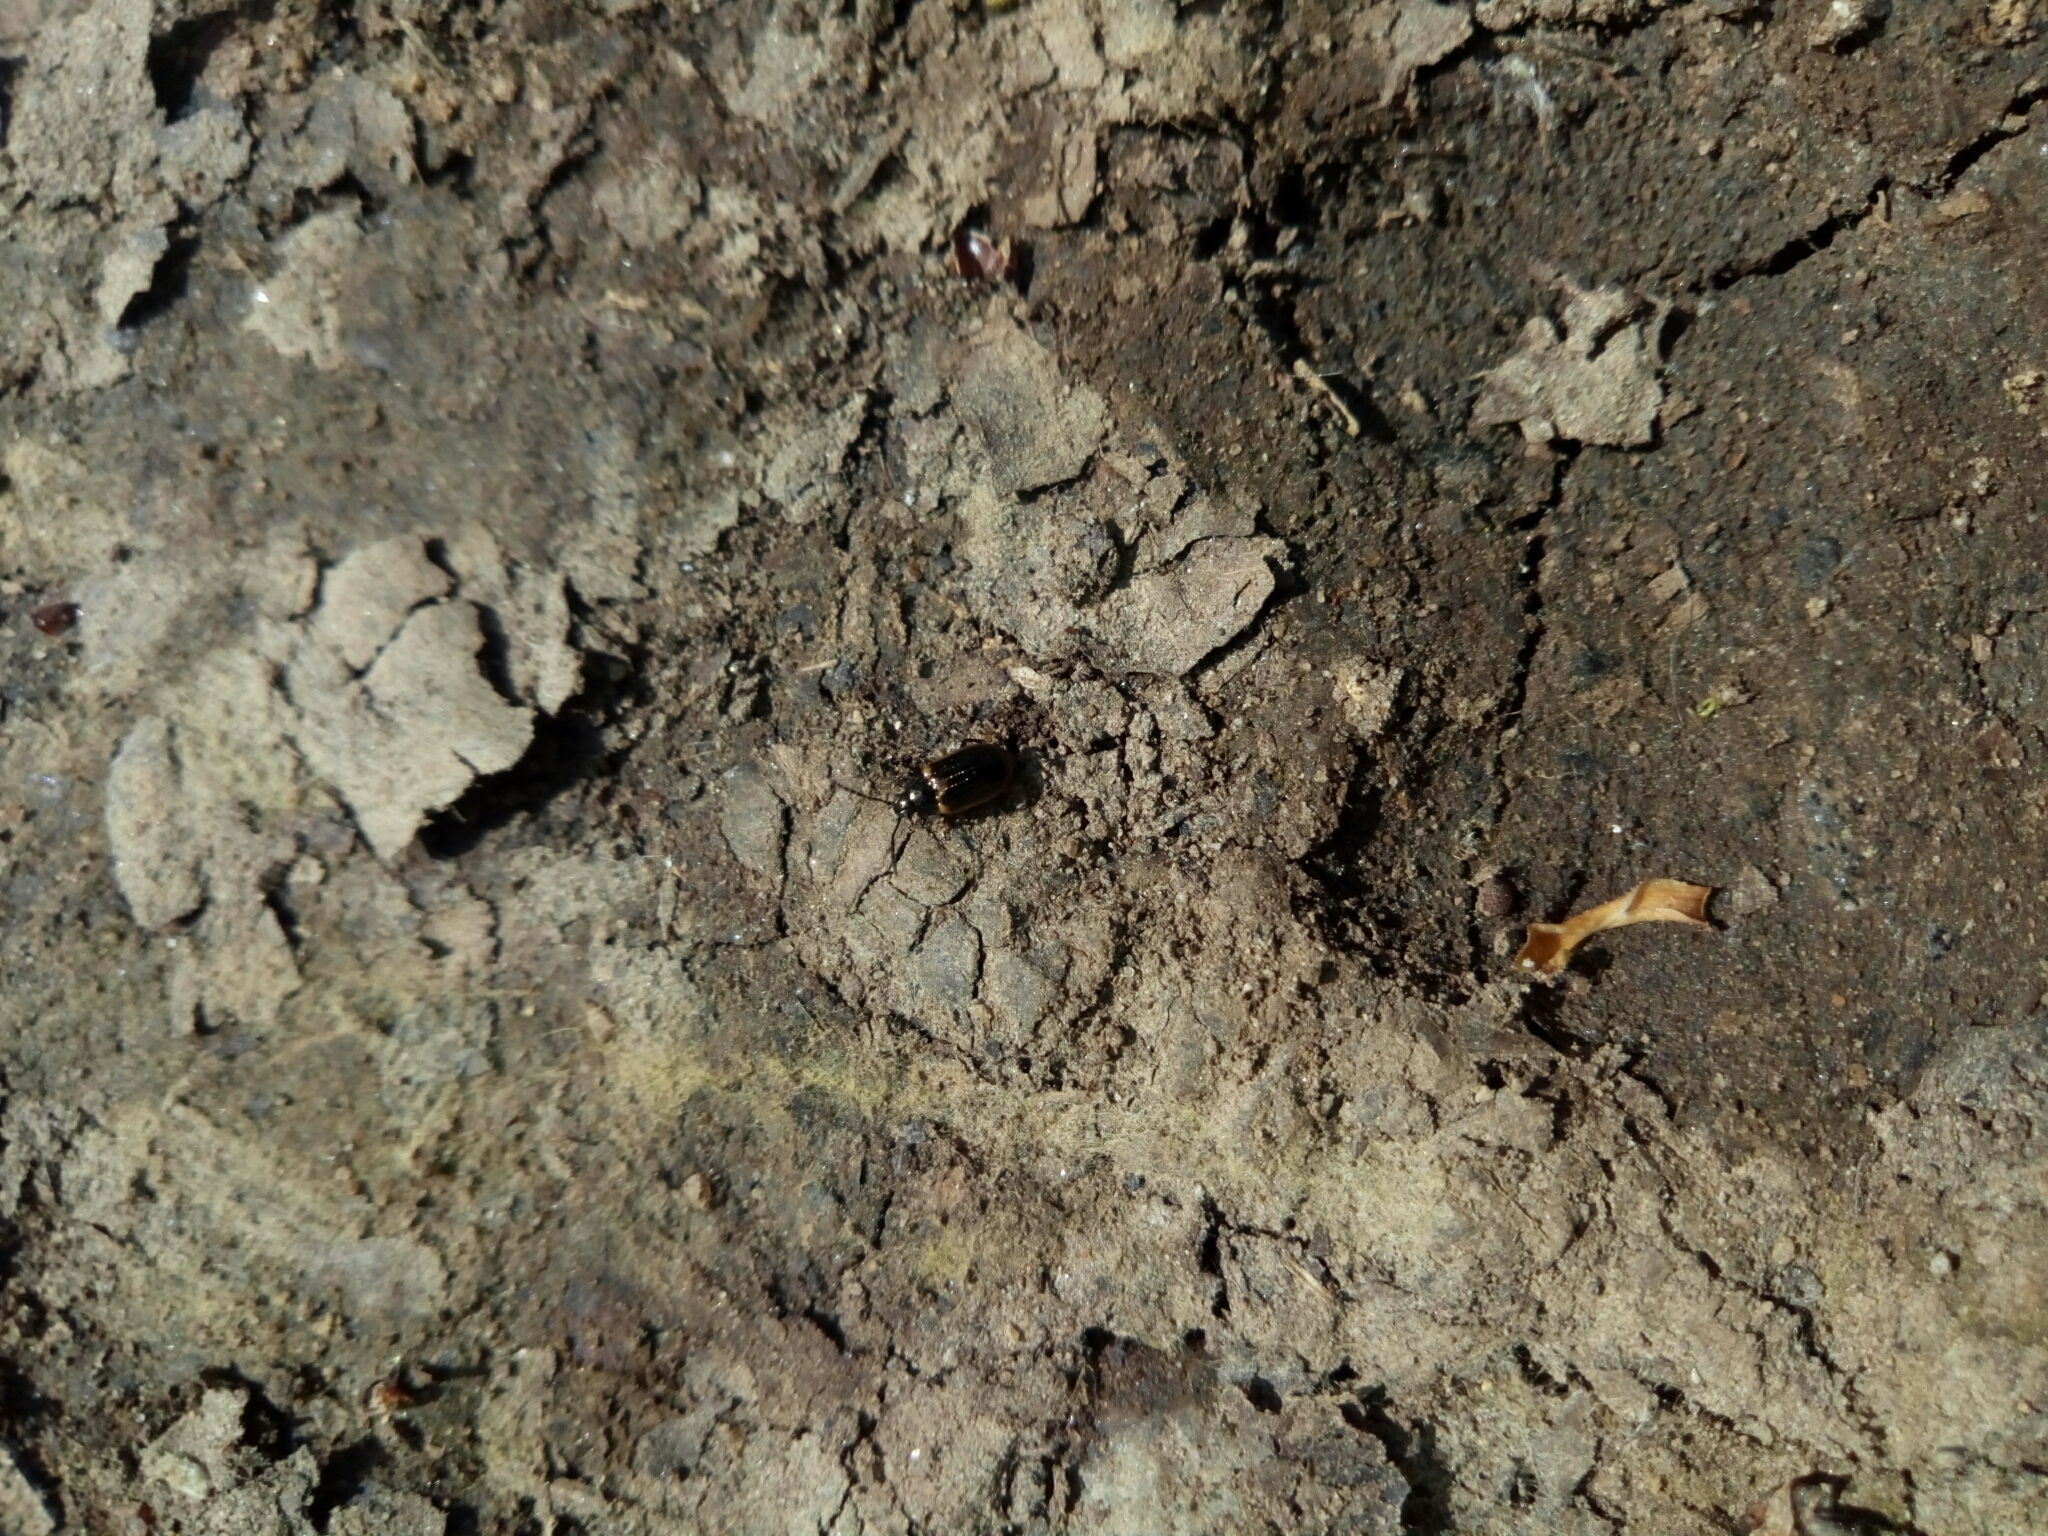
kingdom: Animalia
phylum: Arthropoda
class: Insecta
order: Coleoptera
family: Chrysomelidae
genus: Microtheca
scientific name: Microtheca ochroloma
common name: Leaf beetle
